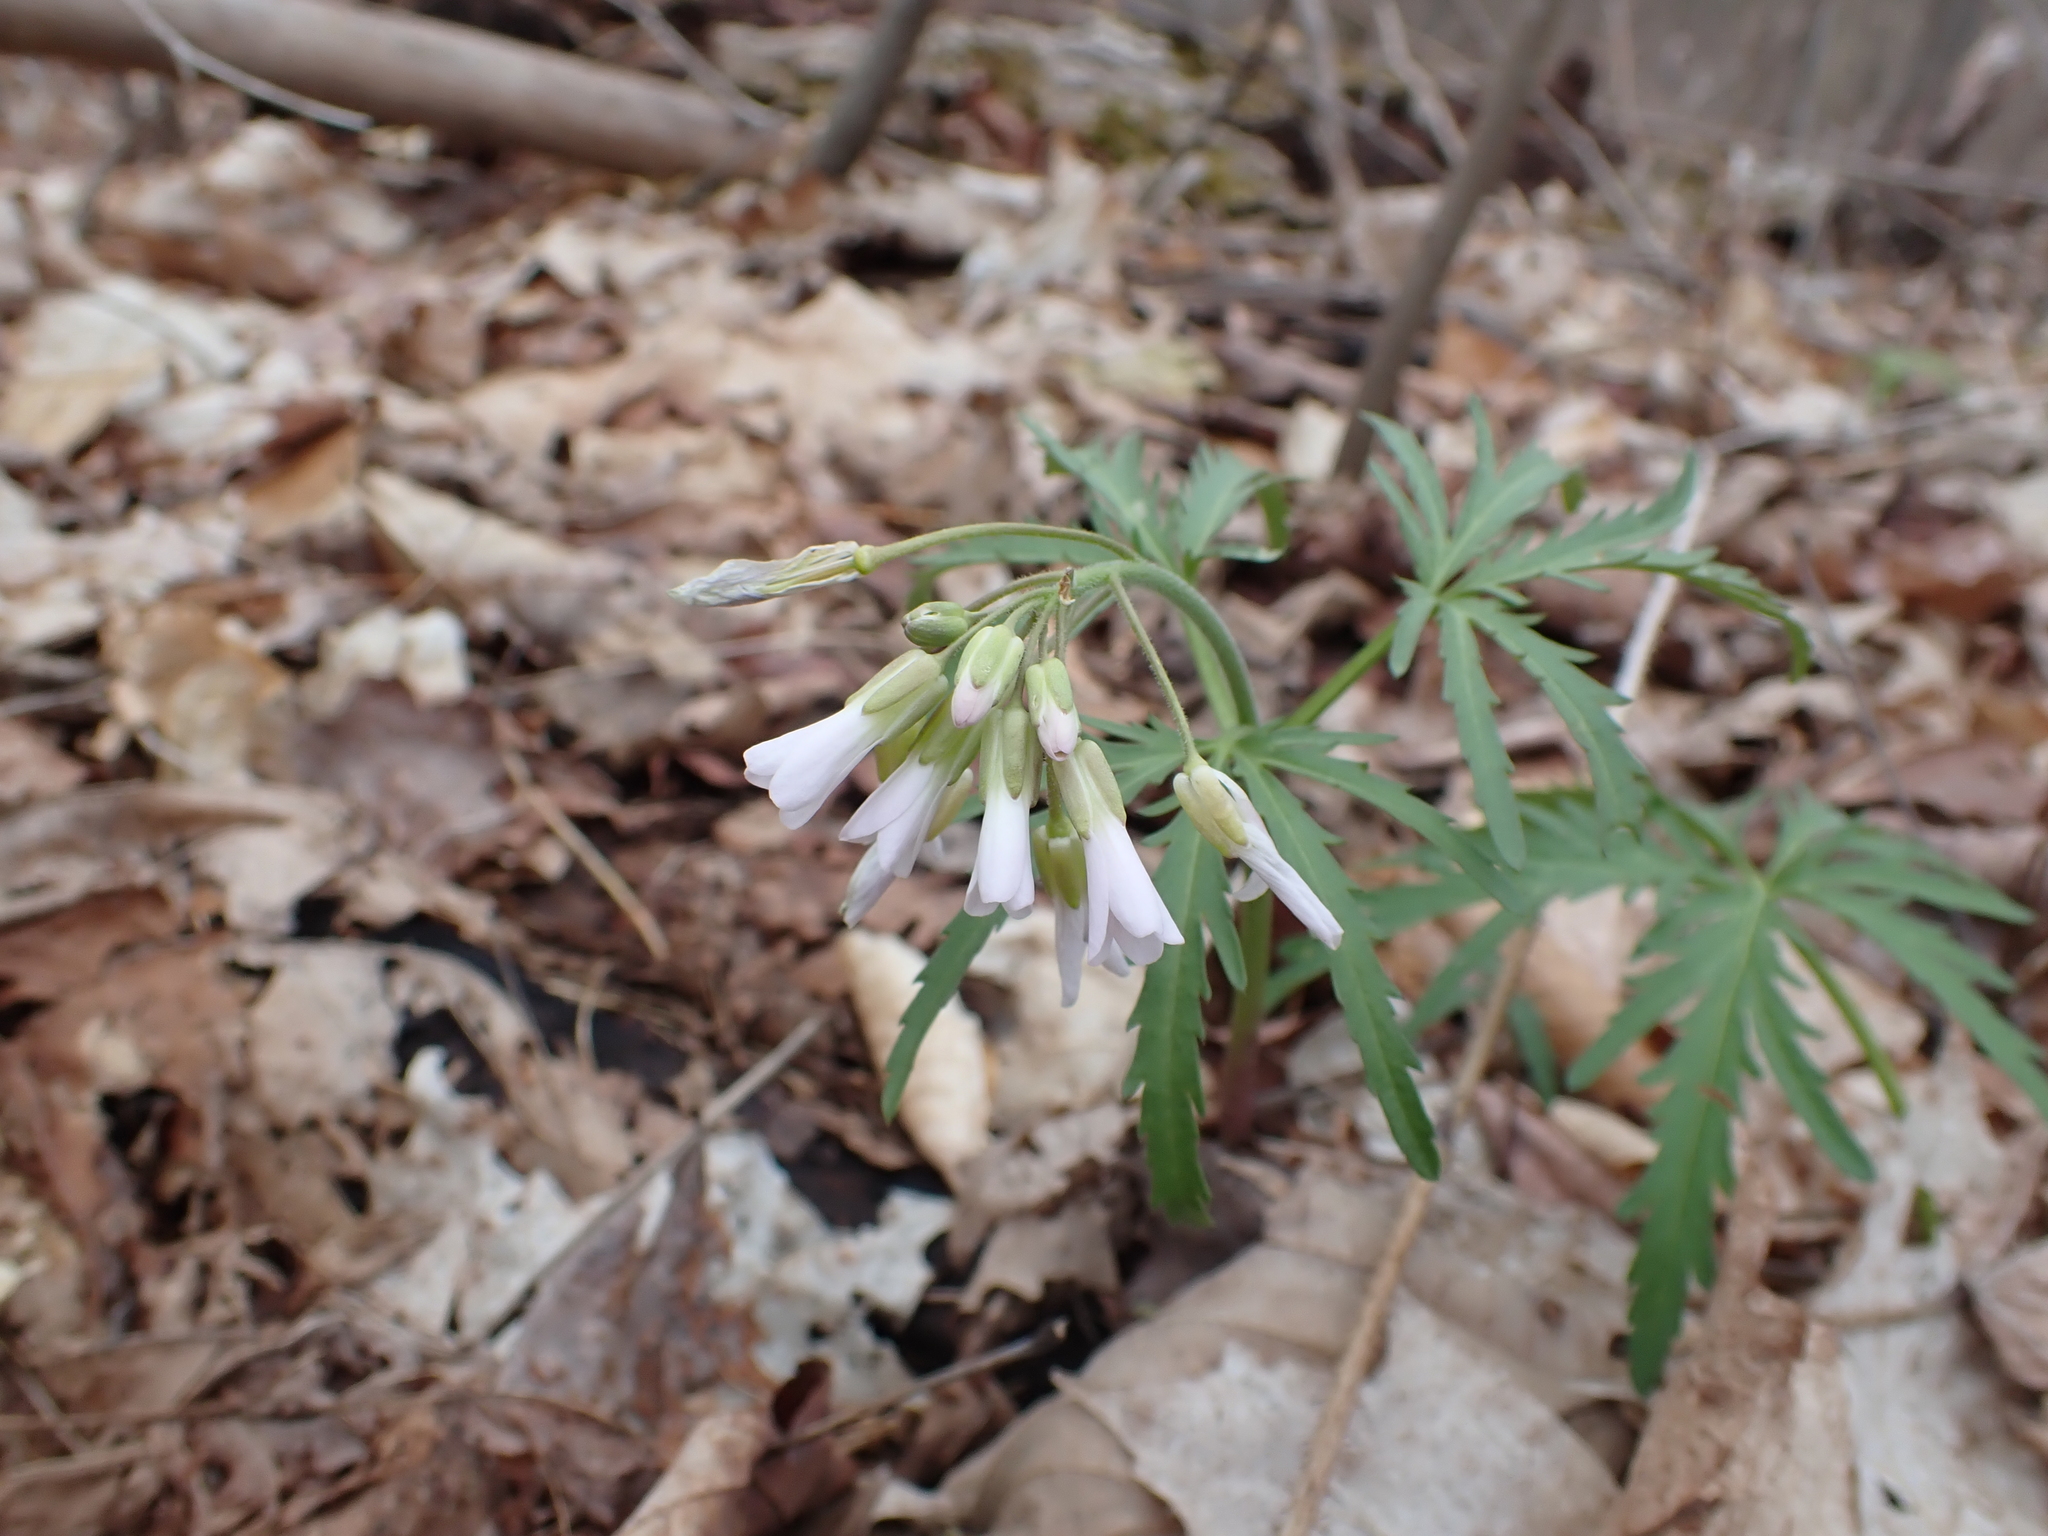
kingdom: Plantae
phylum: Tracheophyta
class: Magnoliopsida
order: Brassicales
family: Brassicaceae
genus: Cardamine
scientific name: Cardamine concatenata
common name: Cut-leaf toothcup
